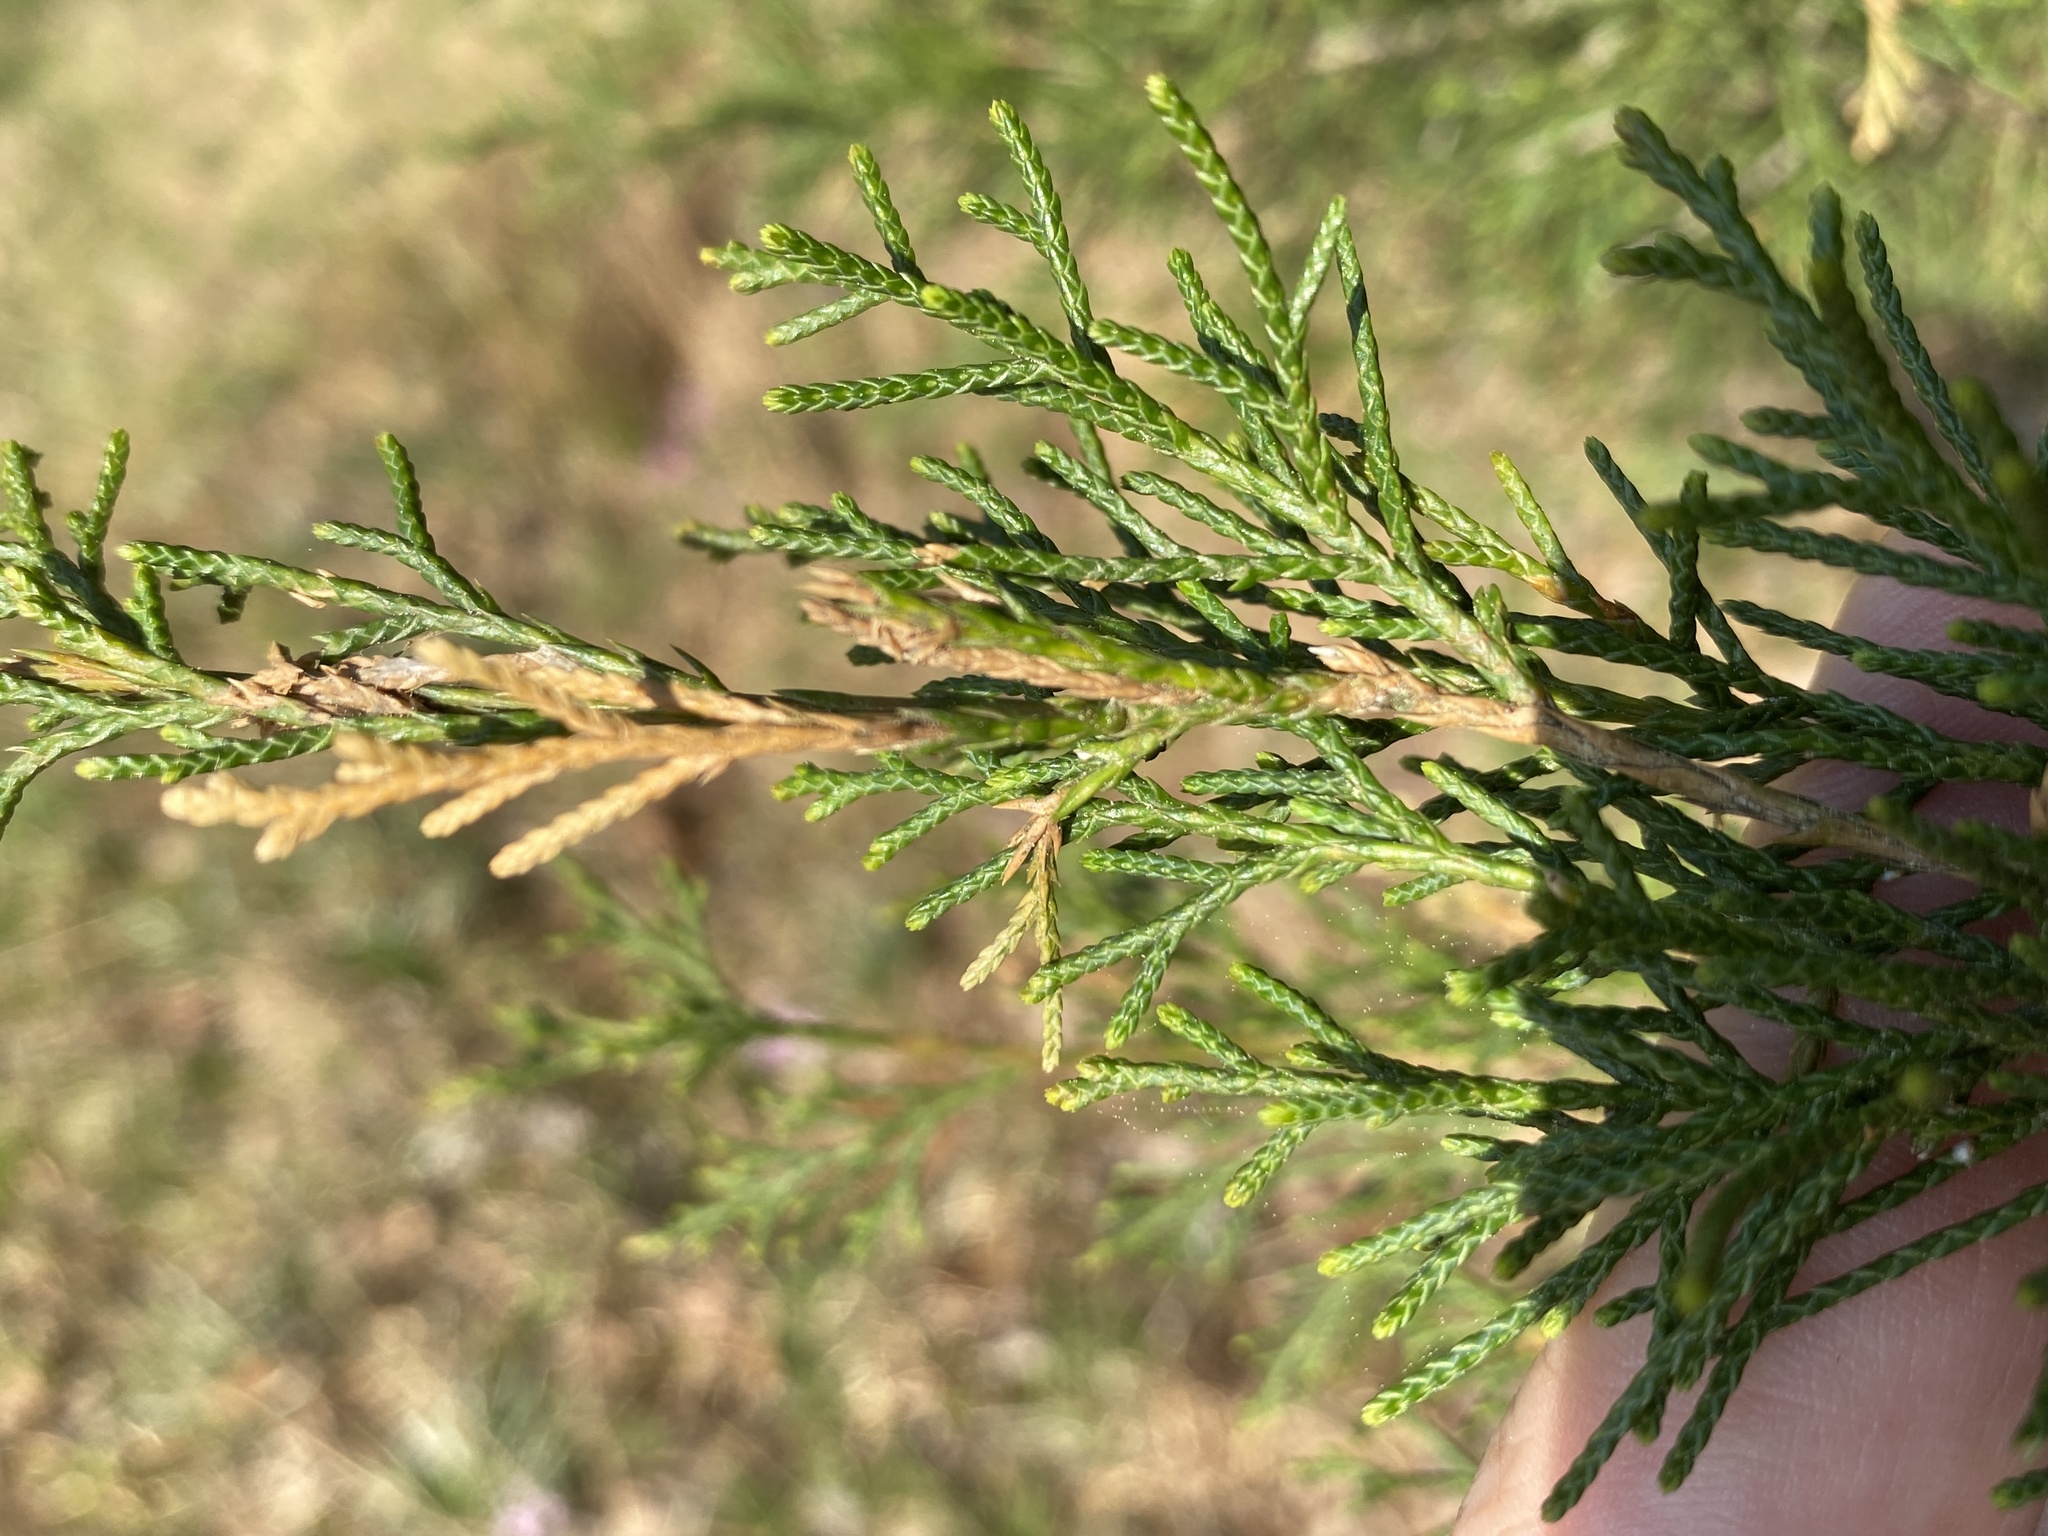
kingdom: Plantae
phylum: Tracheophyta
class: Pinopsida
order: Pinales
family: Cupressaceae
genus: Juniperus
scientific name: Juniperus virginiana
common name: Red juniper
